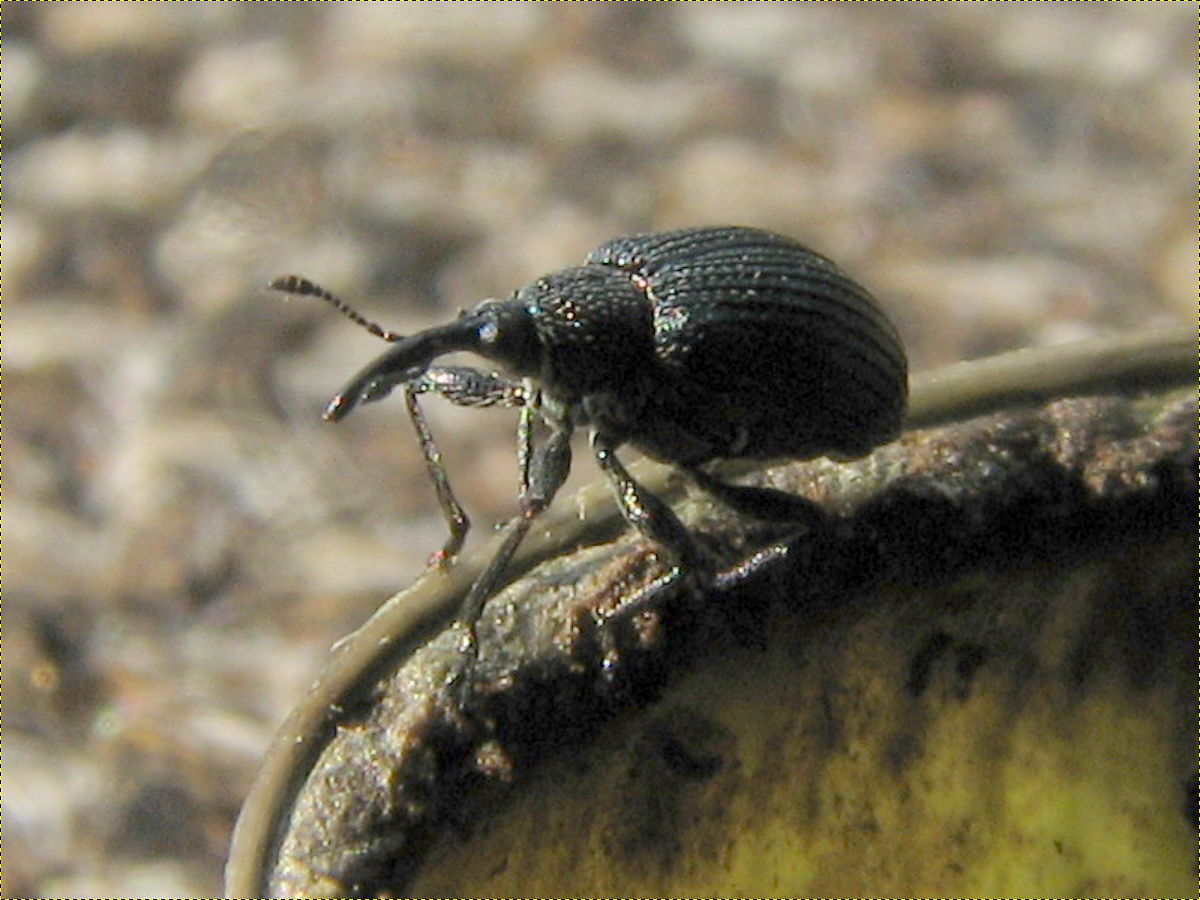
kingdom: Animalia
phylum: Arthropoda
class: Insecta
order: Coleoptera
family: Brentidae
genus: Trichapion
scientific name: Trichapion
